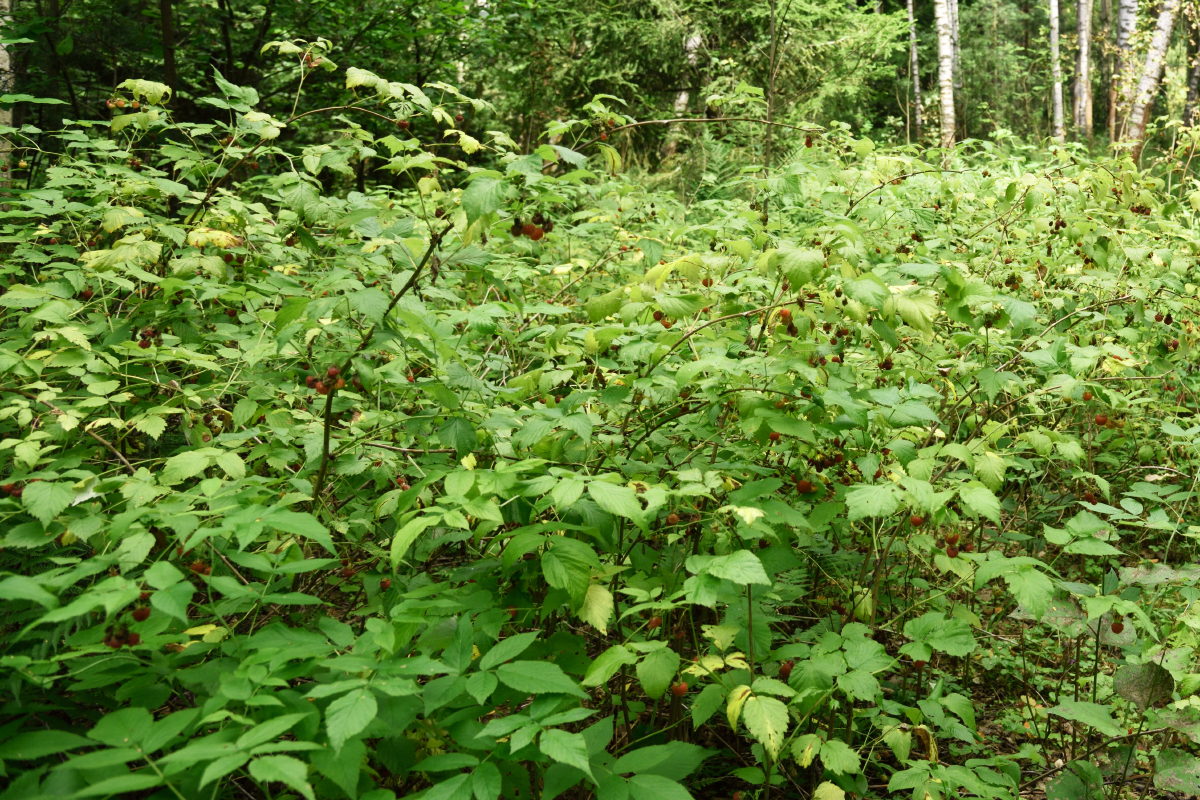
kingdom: Plantae
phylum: Tracheophyta
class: Magnoliopsida
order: Rosales
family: Rosaceae
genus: Rubus
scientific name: Rubus idaeus
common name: Raspberry
